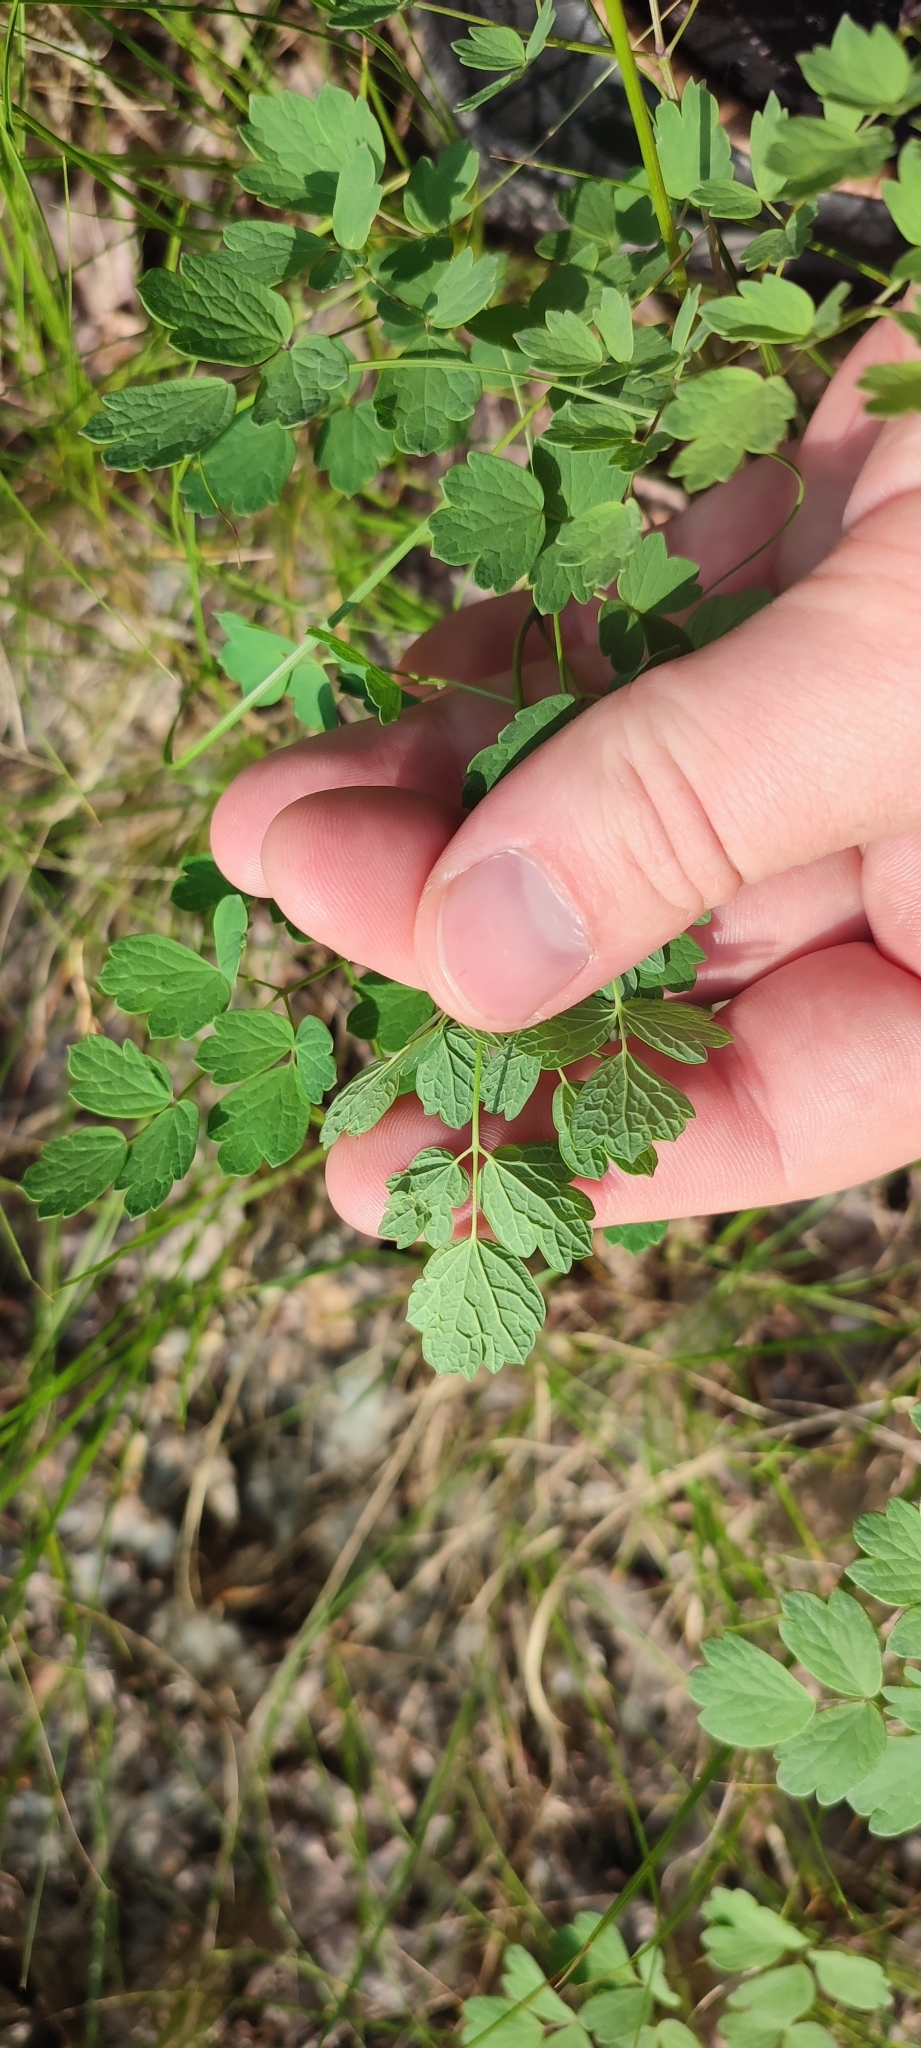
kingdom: Plantae
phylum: Tracheophyta
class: Magnoliopsida
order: Ranunculales
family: Ranunculaceae
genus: Thalictrum
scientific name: Thalictrum minus
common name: Lesser meadow-rue
